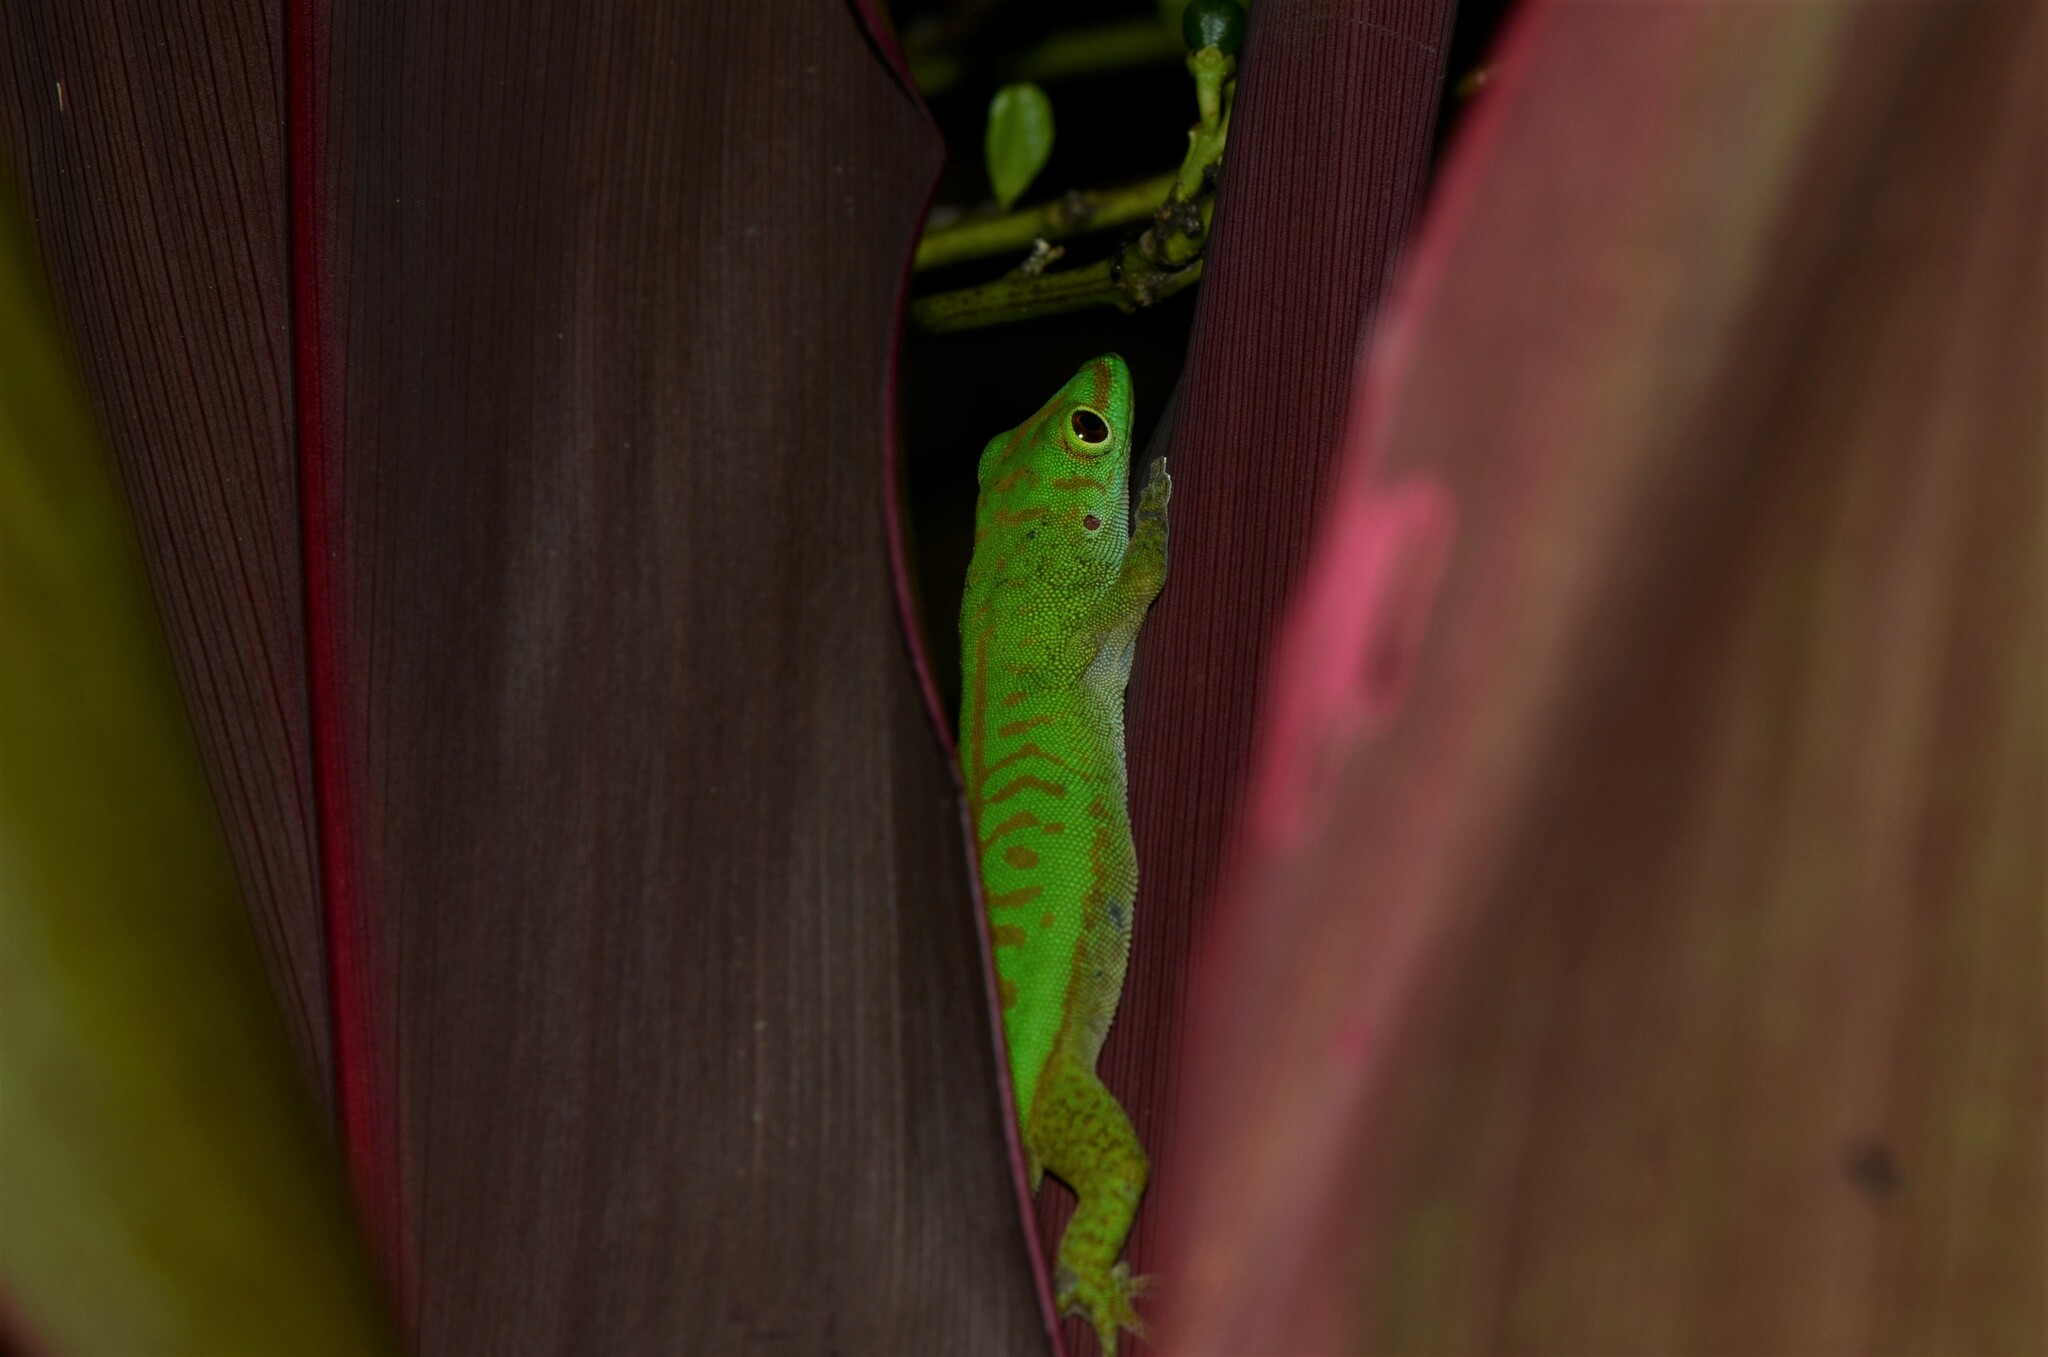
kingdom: Animalia
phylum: Chordata
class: Squamata
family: Gekkonidae
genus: Phelsuma
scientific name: Phelsuma astriata
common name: Seychelles day gecko
